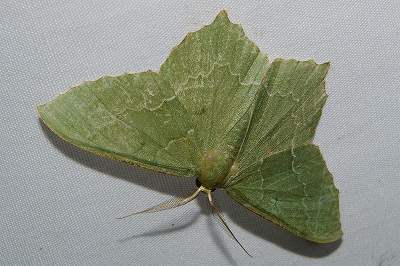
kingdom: Animalia
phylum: Arthropoda
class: Insecta
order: Lepidoptera
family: Geometridae
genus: Maxates
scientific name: Maxates grandificaria
